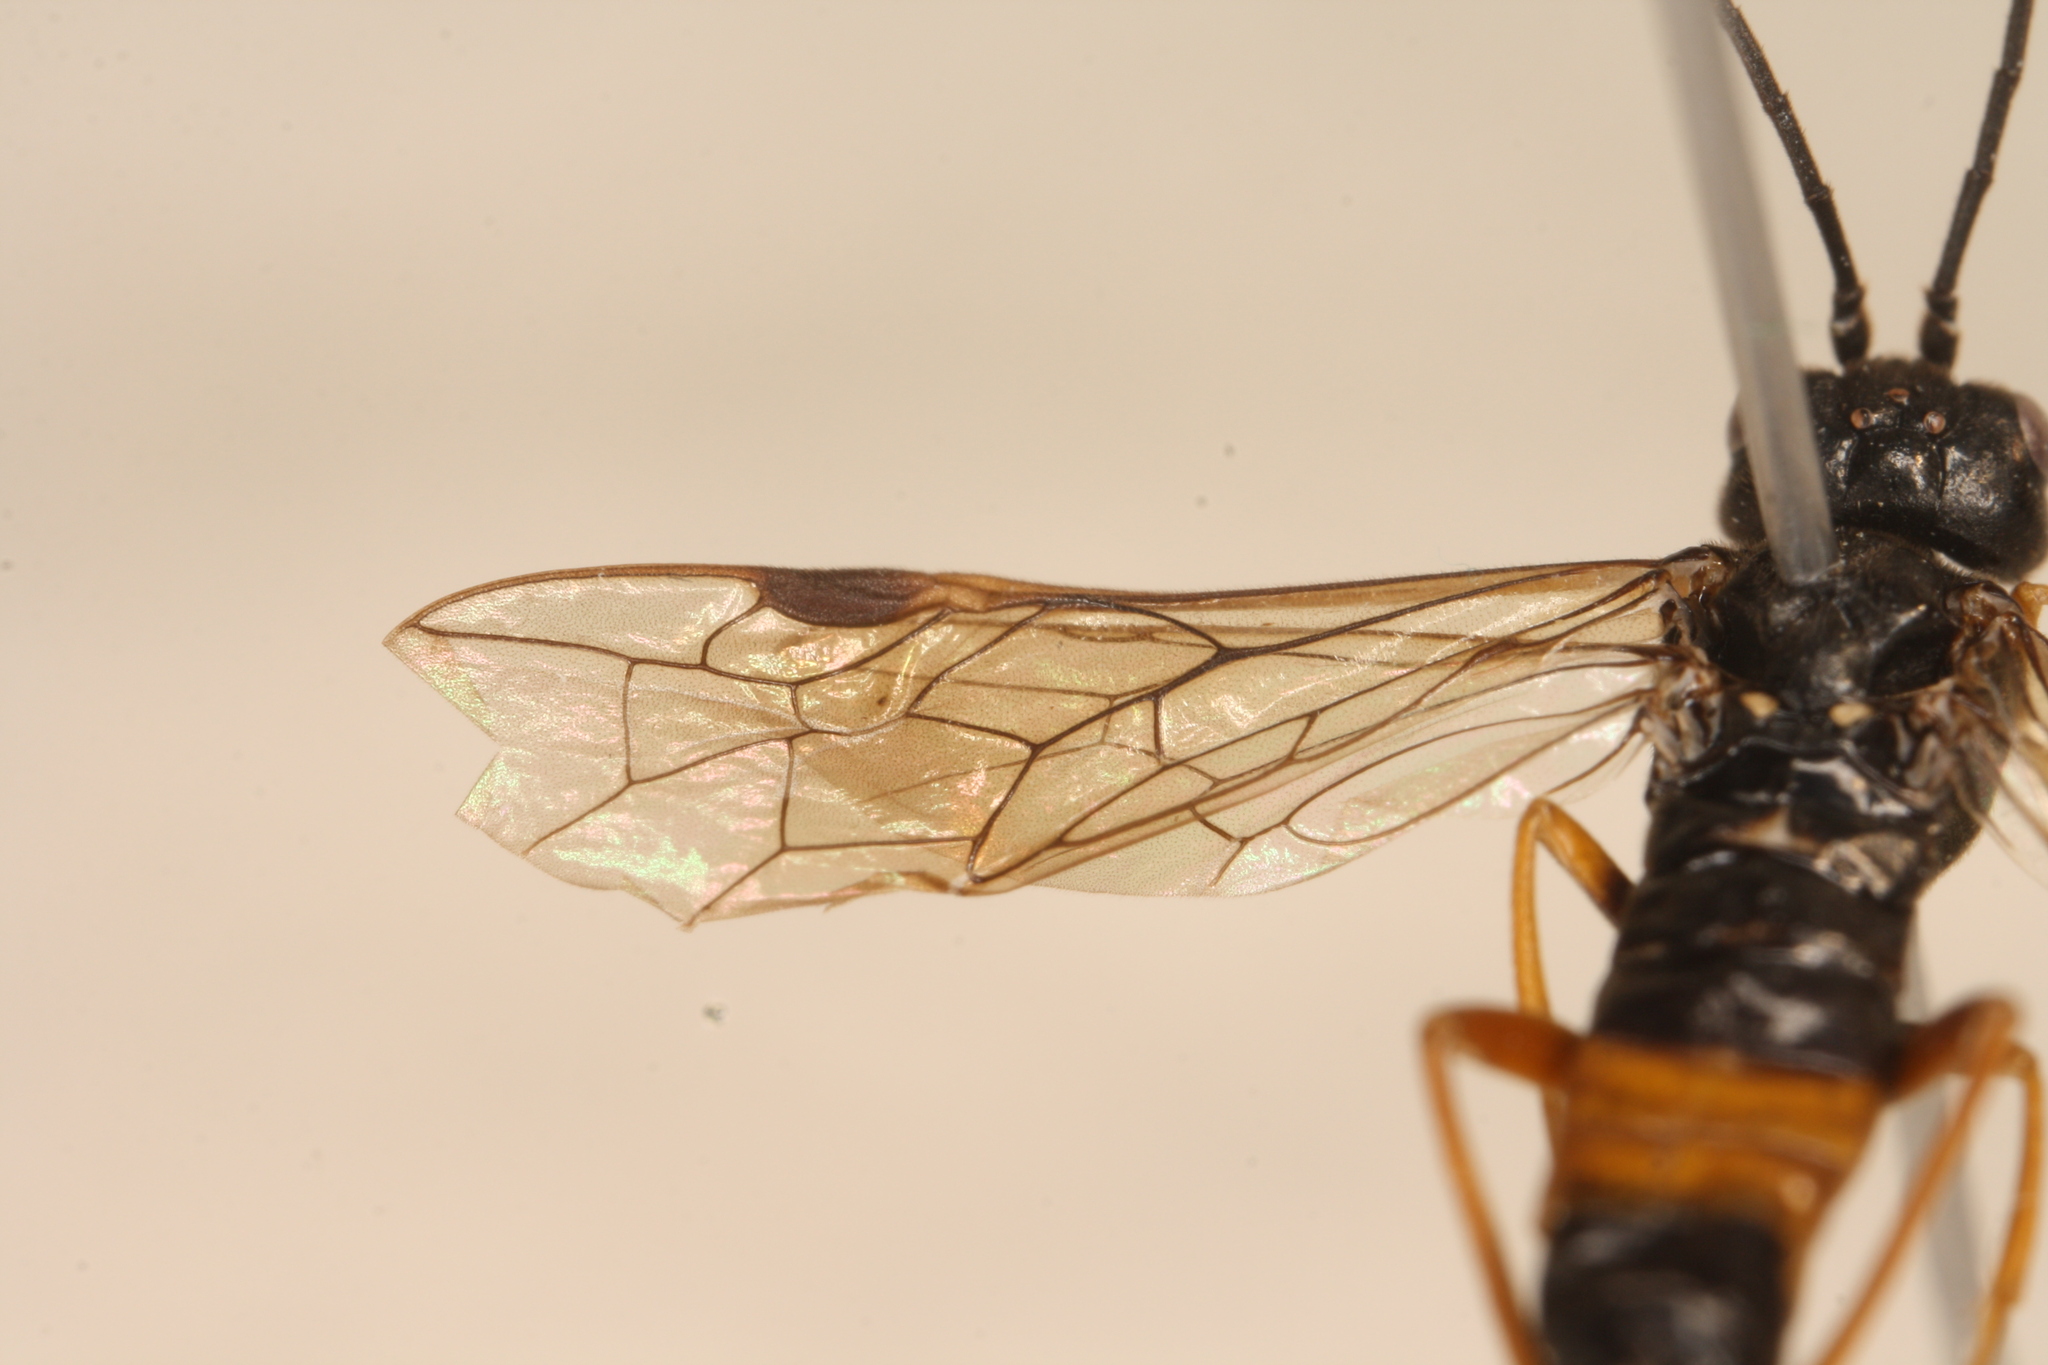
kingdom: Animalia
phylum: Arthropoda
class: Insecta
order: Hymenoptera
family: Tenthredinidae
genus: Allantus
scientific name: Allantus calceatus
